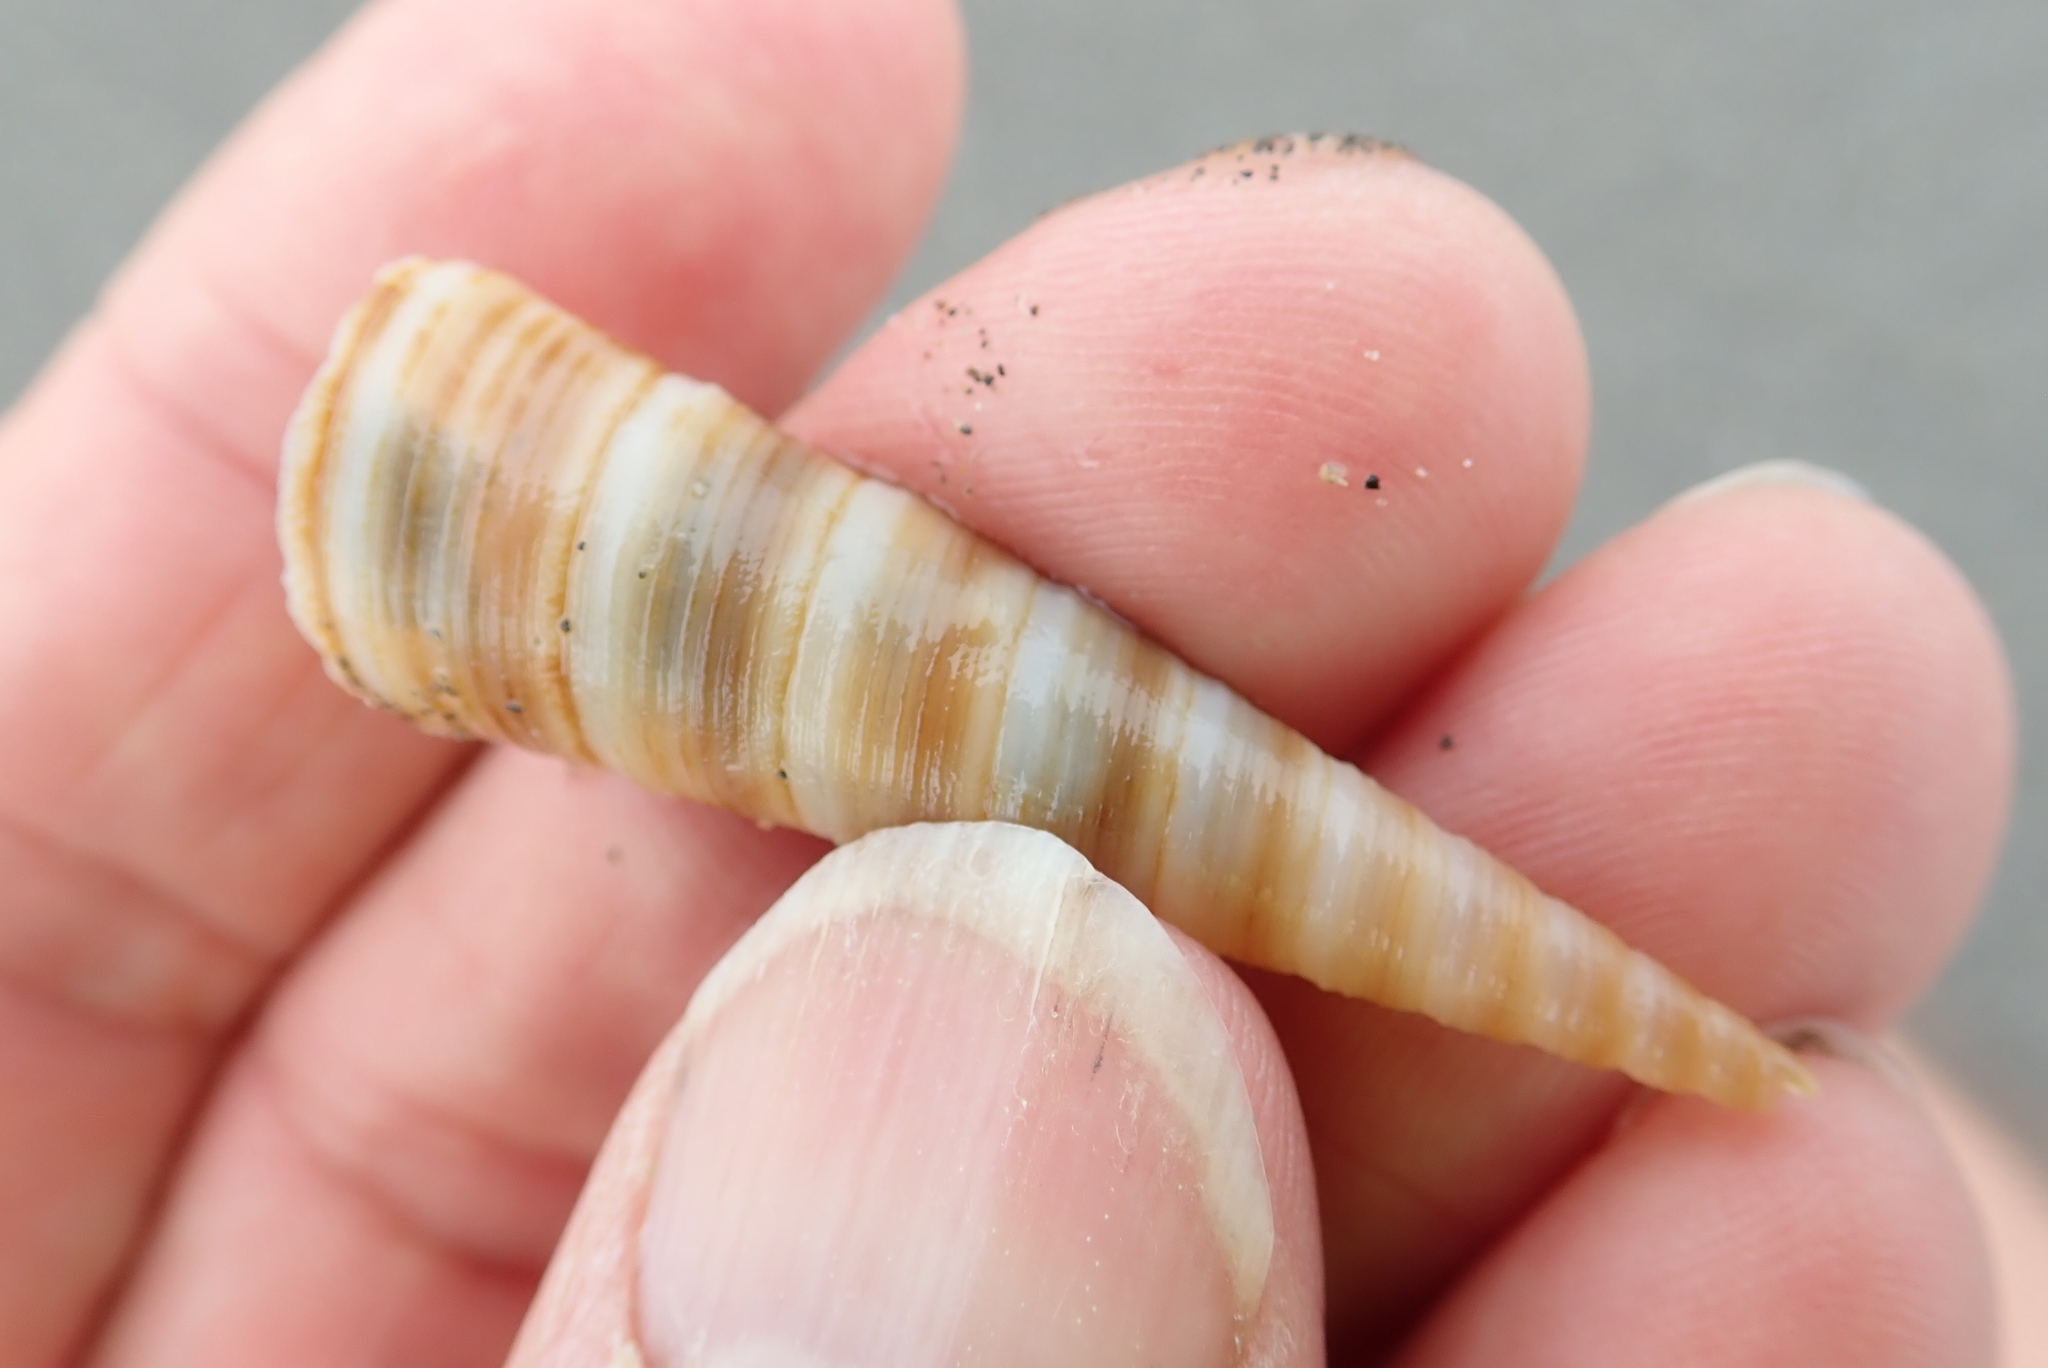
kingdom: Animalia
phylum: Mollusca
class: Gastropoda
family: Turritellidae
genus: Zeacolpus
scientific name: Zeacolpus vittatus
